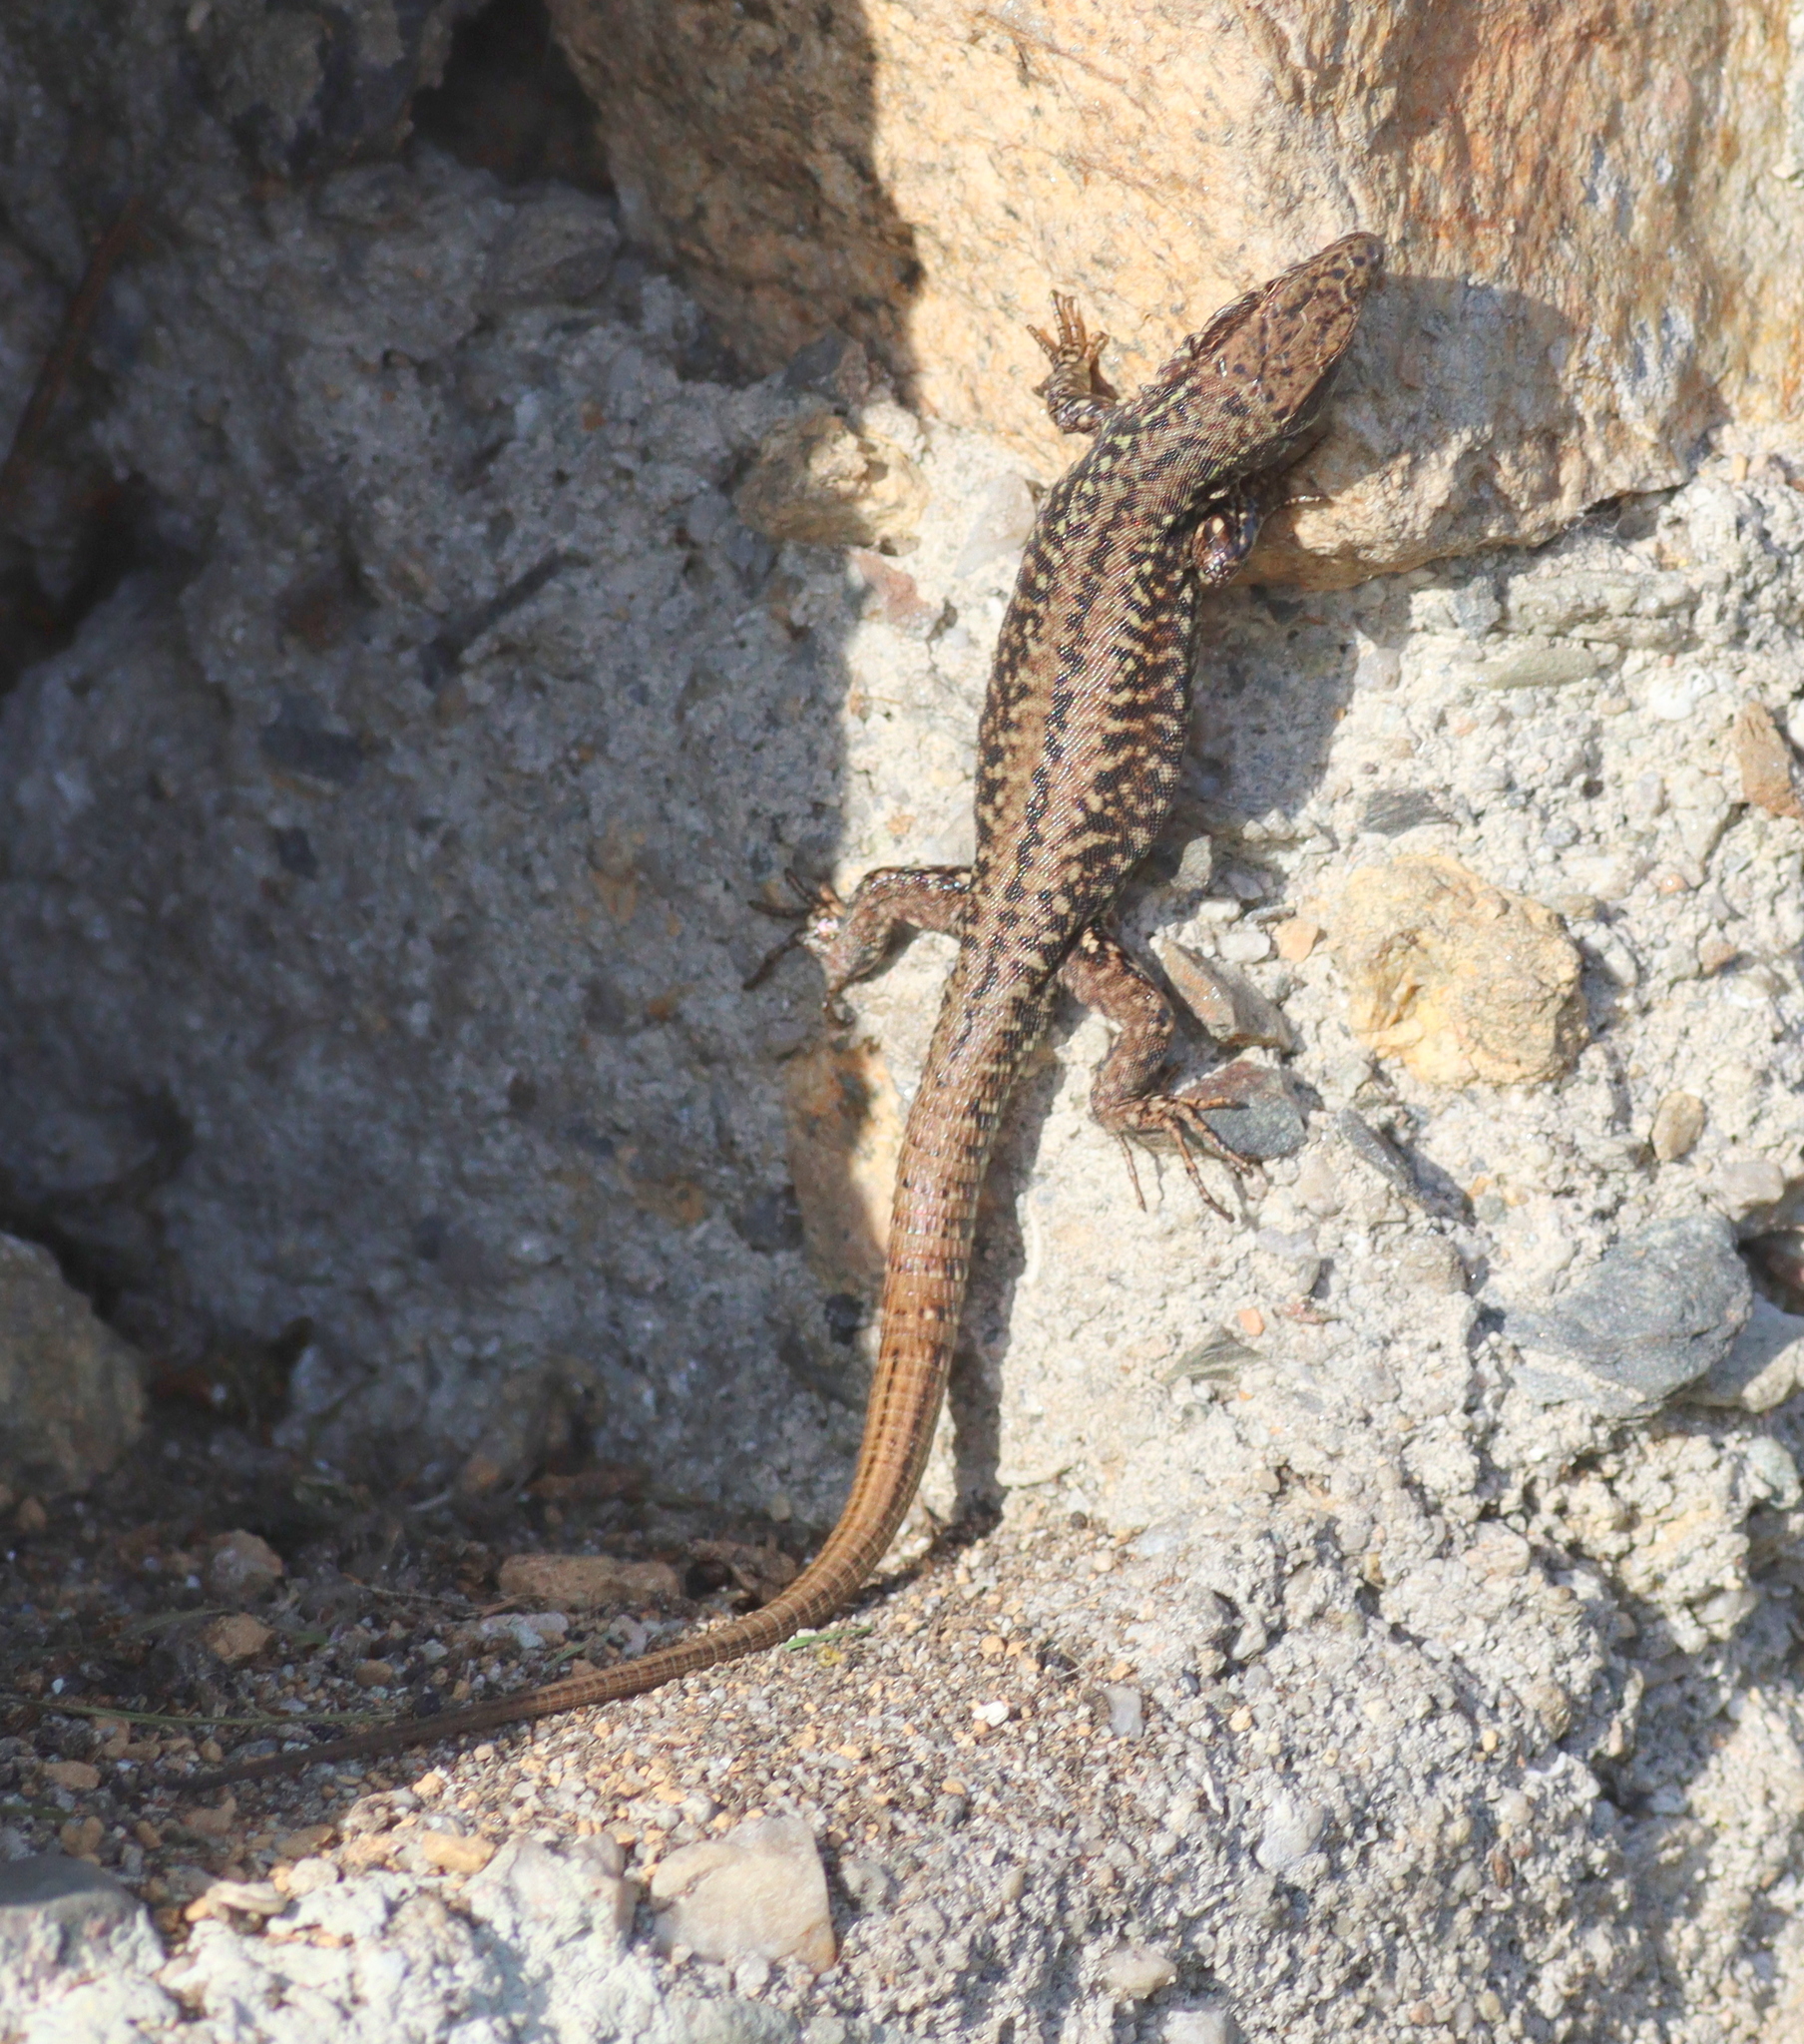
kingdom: Animalia
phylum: Chordata
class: Squamata
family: Lacertidae
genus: Podarcis
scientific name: Podarcis muralis
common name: Common wall lizard
